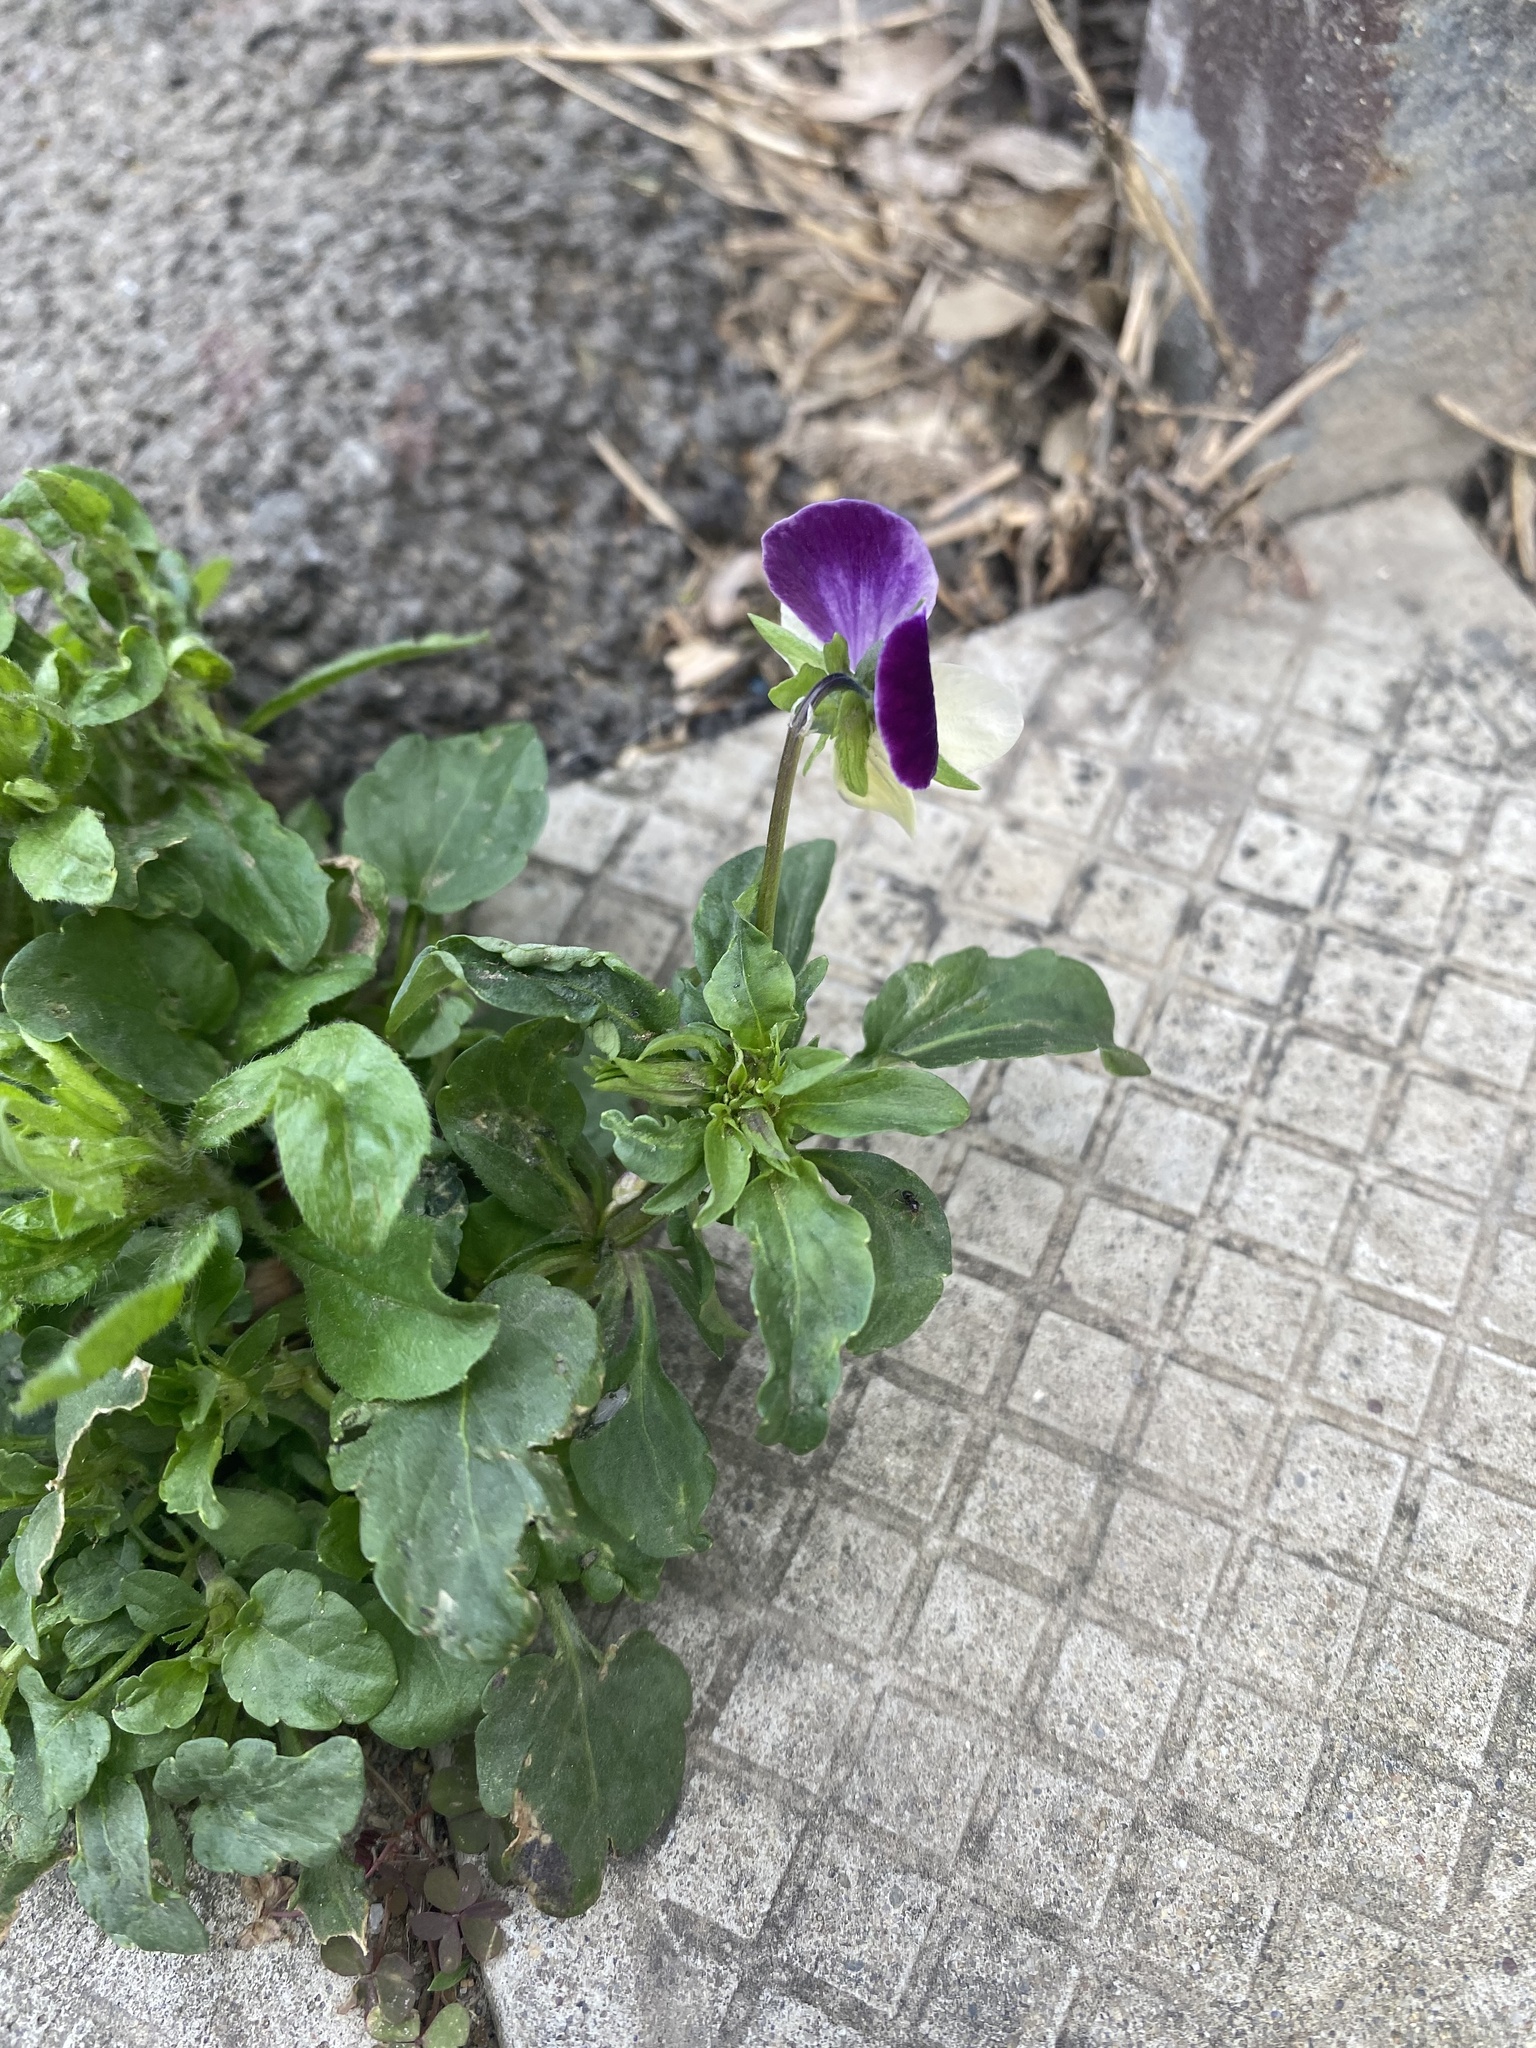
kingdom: Plantae
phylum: Tracheophyta
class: Magnoliopsida
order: Malpighiales
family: Violaceae
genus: Viola
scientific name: Viola wittrockiana
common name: Garden pansy
